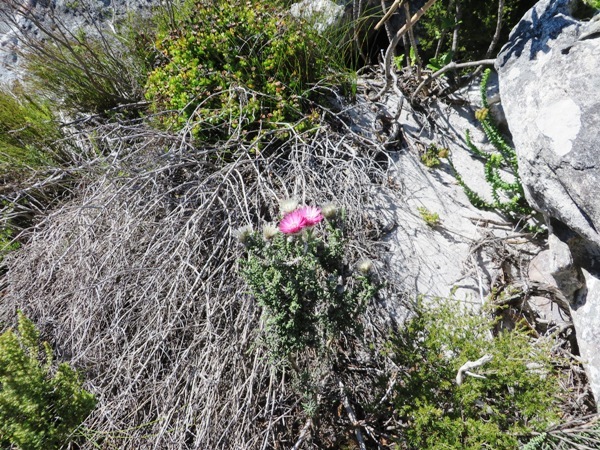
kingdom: Plantae
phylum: Tracheophyta
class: Magnoliopsida
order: Asterales
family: Asteraceae
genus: Phaenocoma
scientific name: Phaenocoma prolifera
